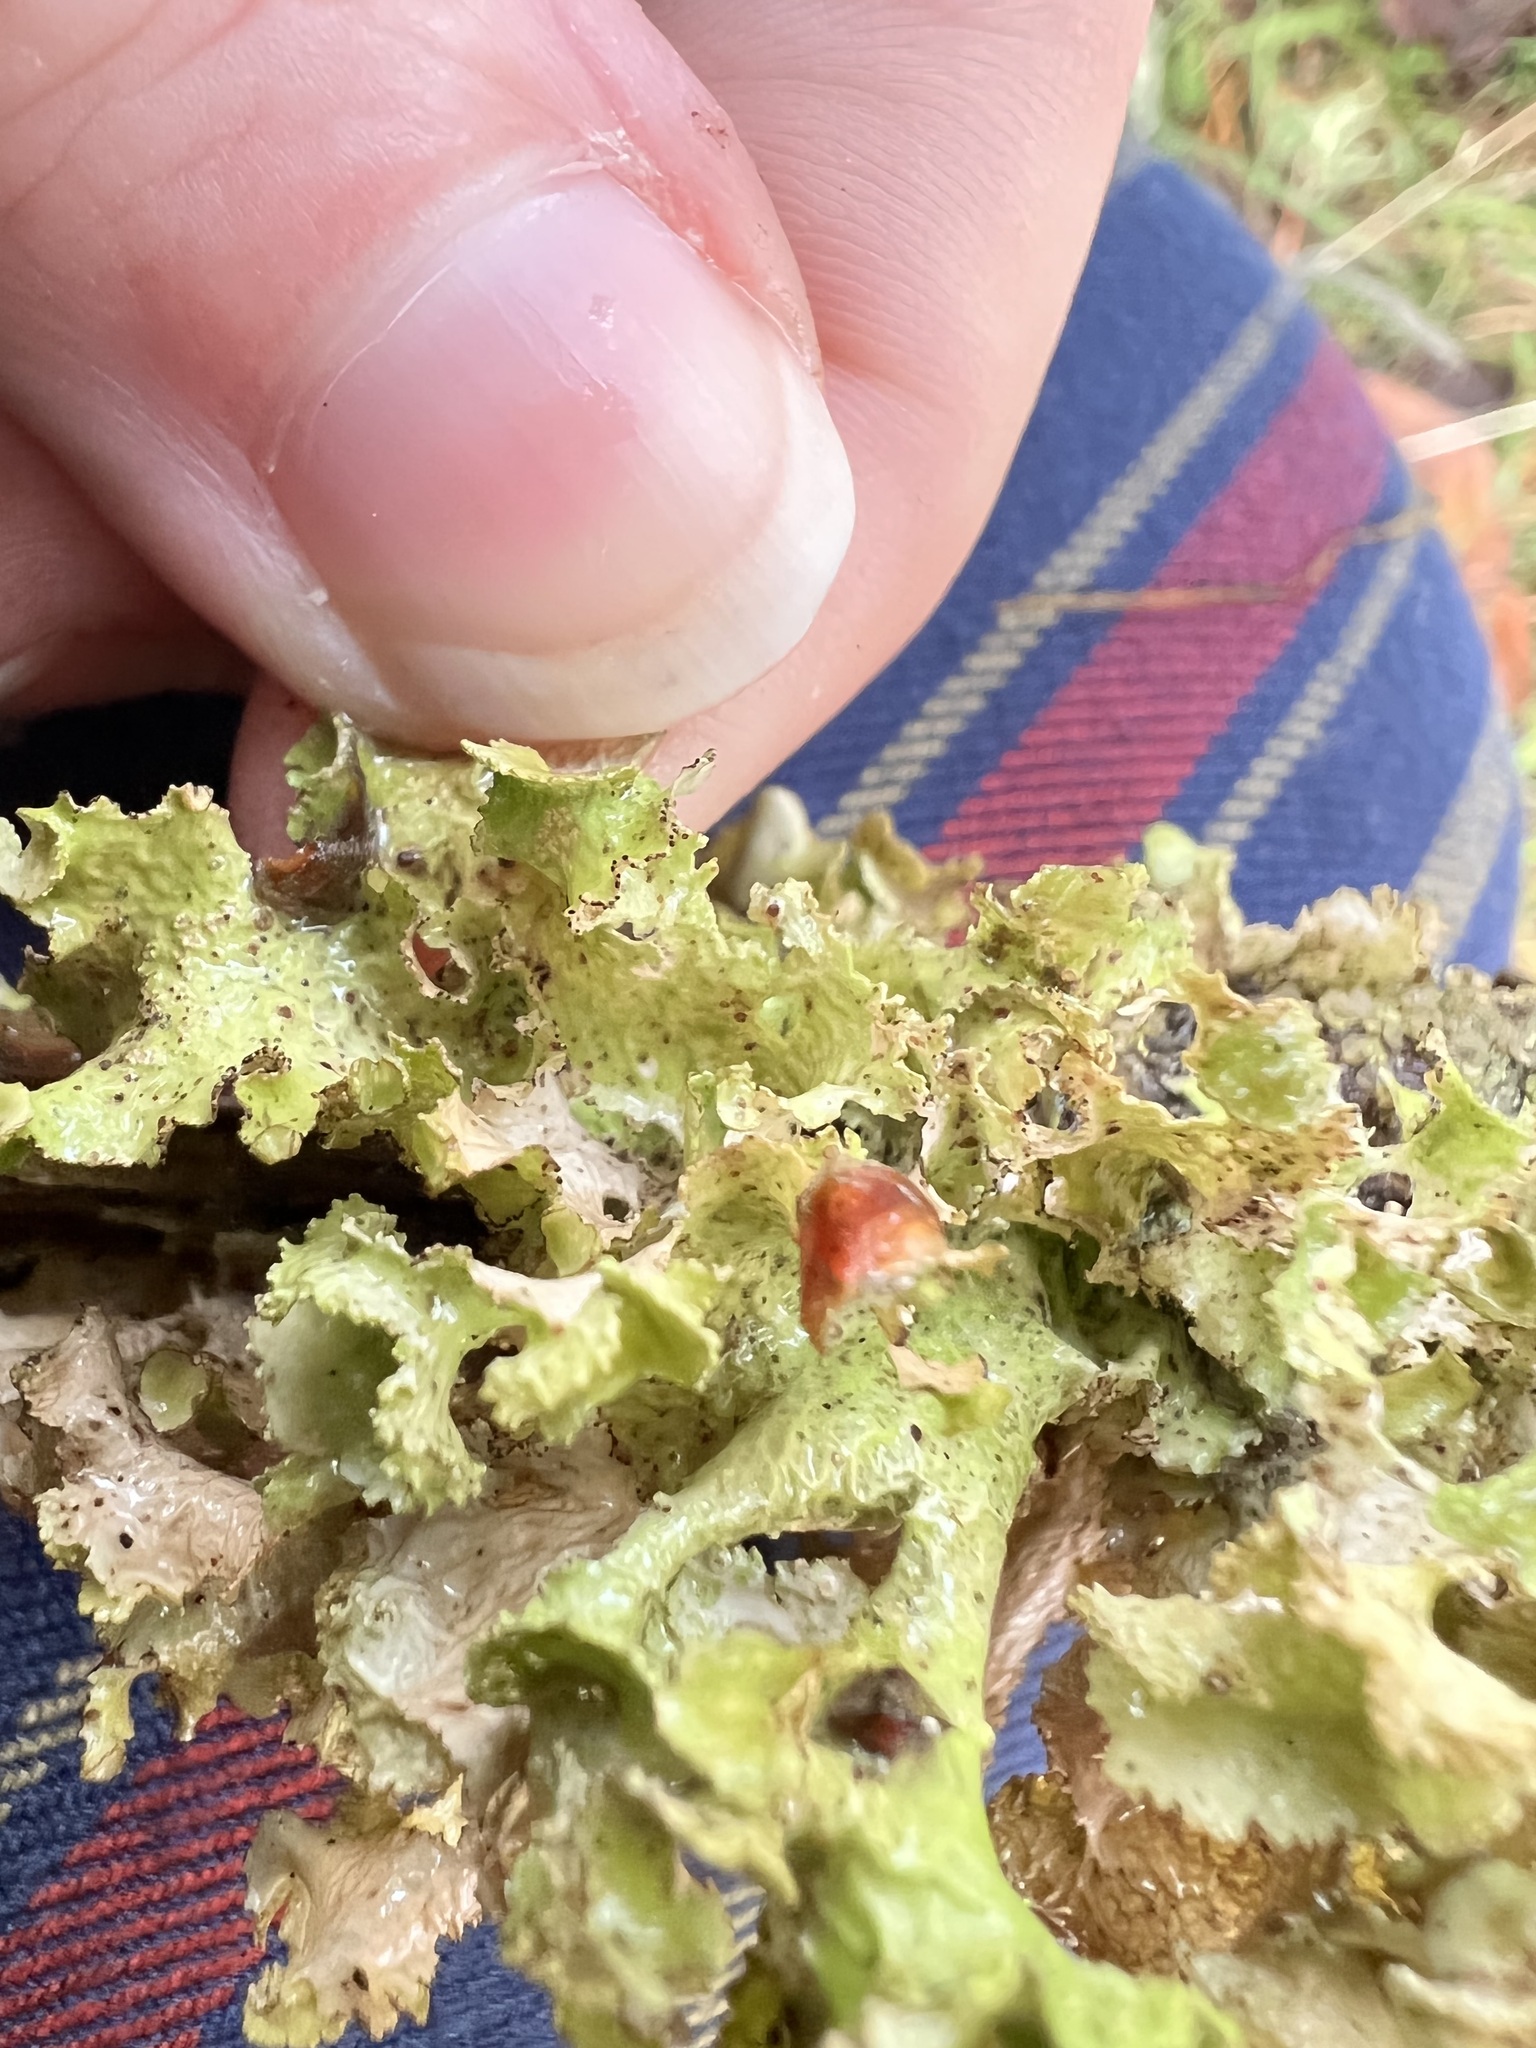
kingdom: Fungi
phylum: Ascomycota
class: Lecanoromycetes
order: Lecanorales
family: Parmeliaceae
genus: Nephromopsis
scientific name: Nephromopsis orbata
